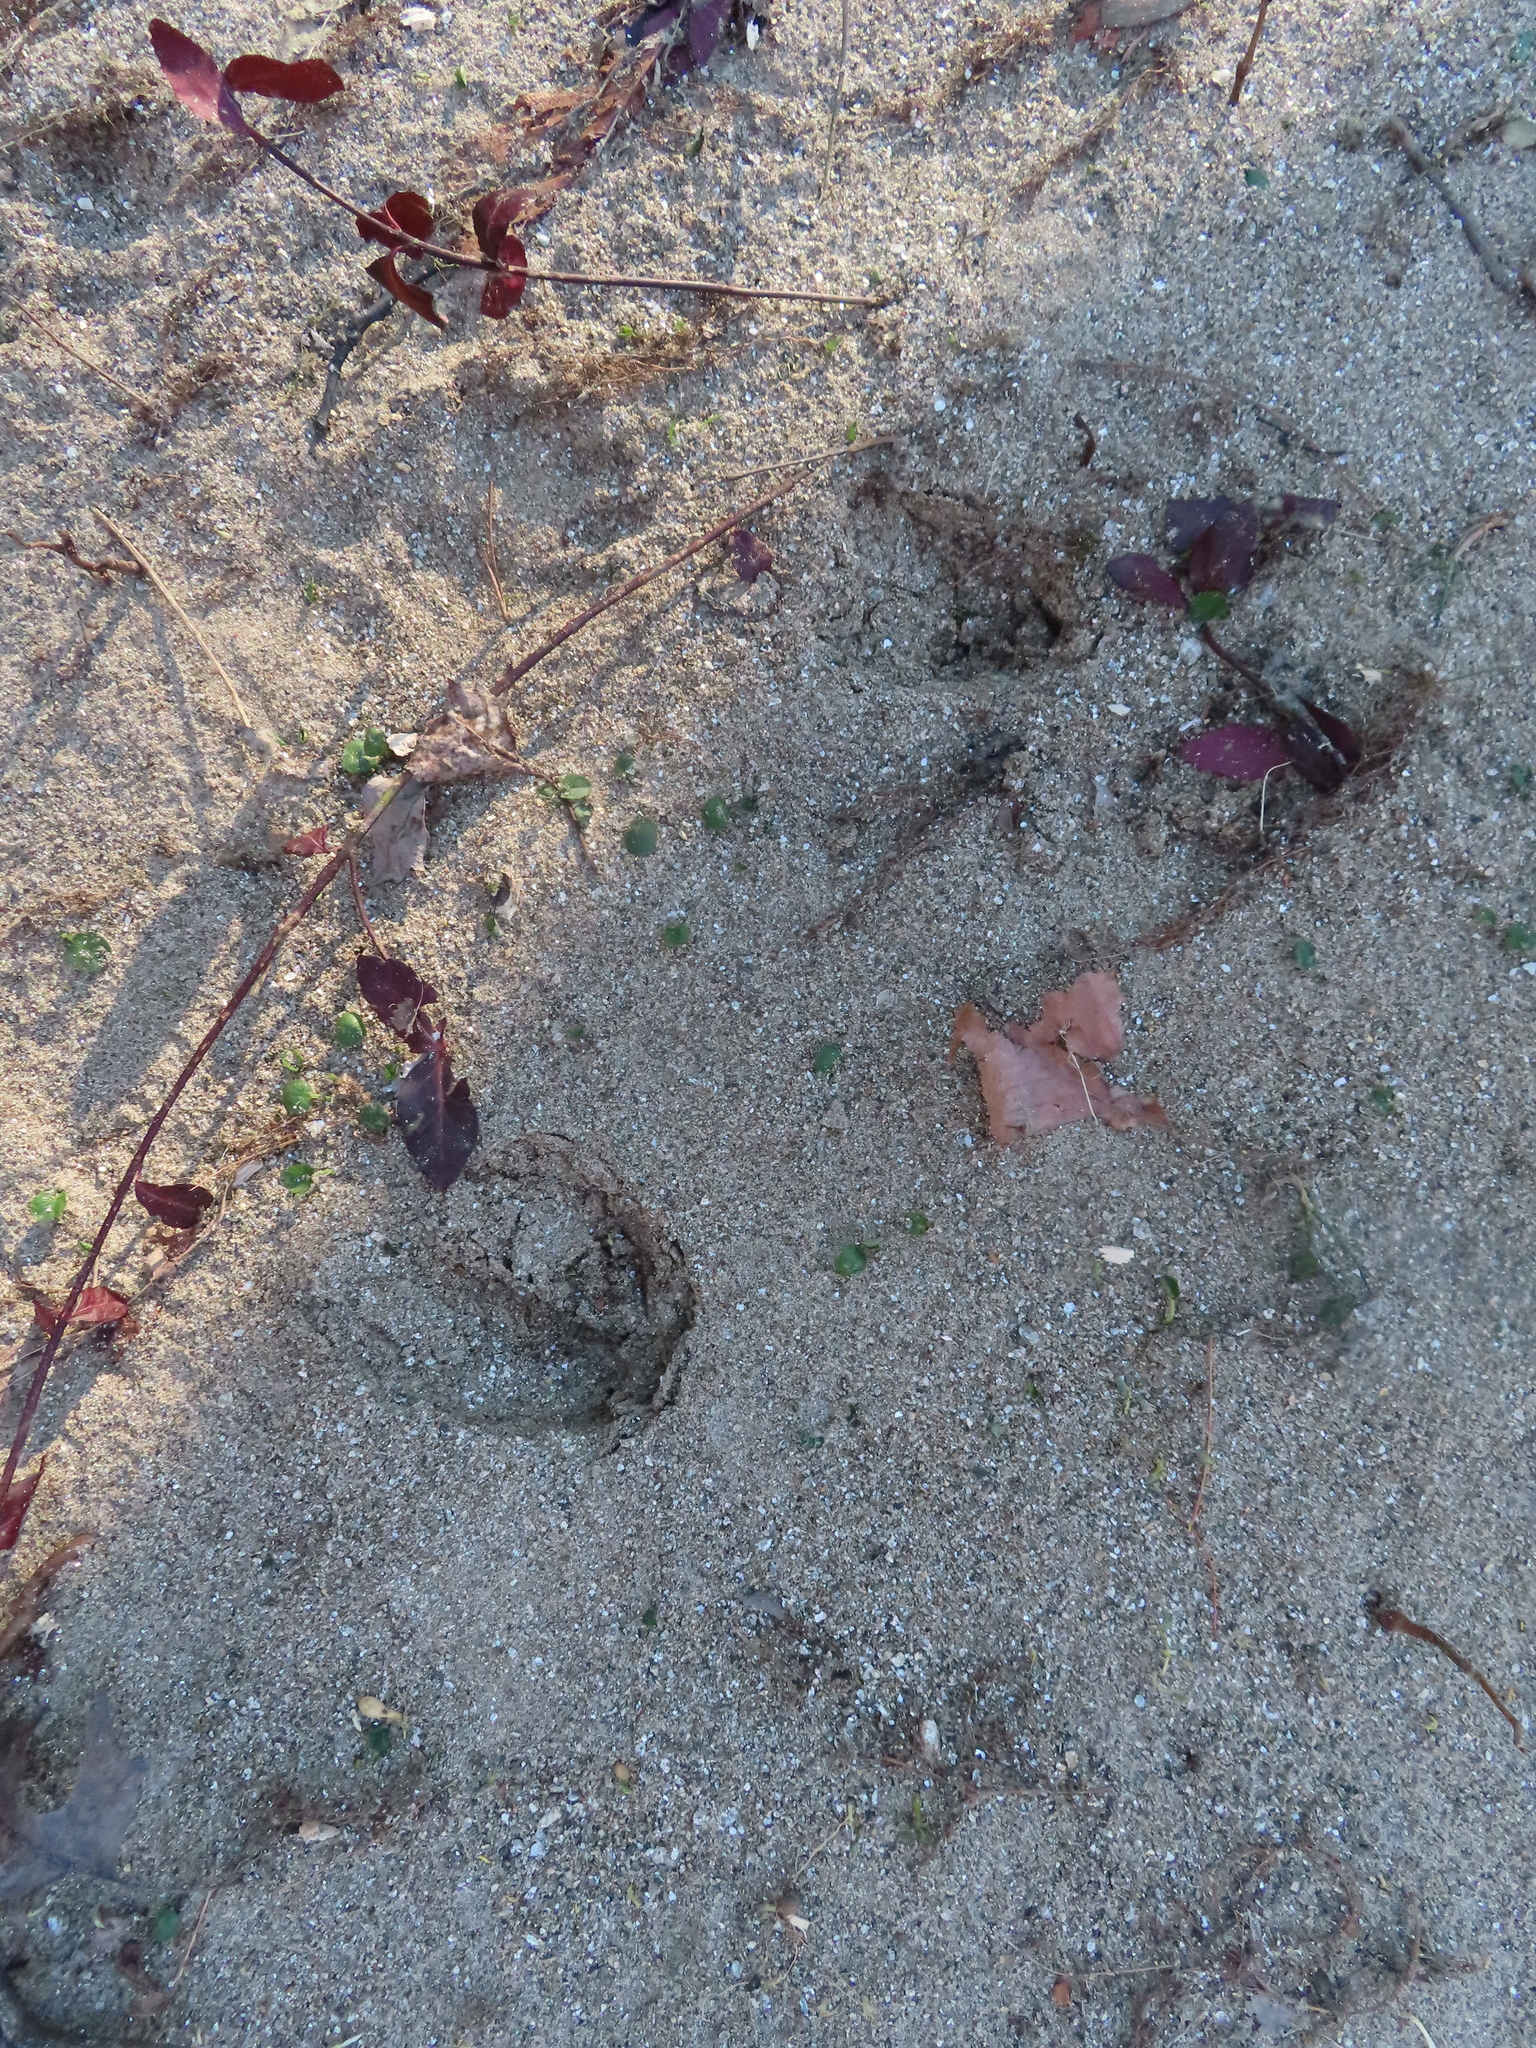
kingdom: Animalia
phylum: Chordata
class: Mammalia
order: Artiodactyla
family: Cervidae
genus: Odocoileus
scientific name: Odocoileus virginianus
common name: White-tailed deer
